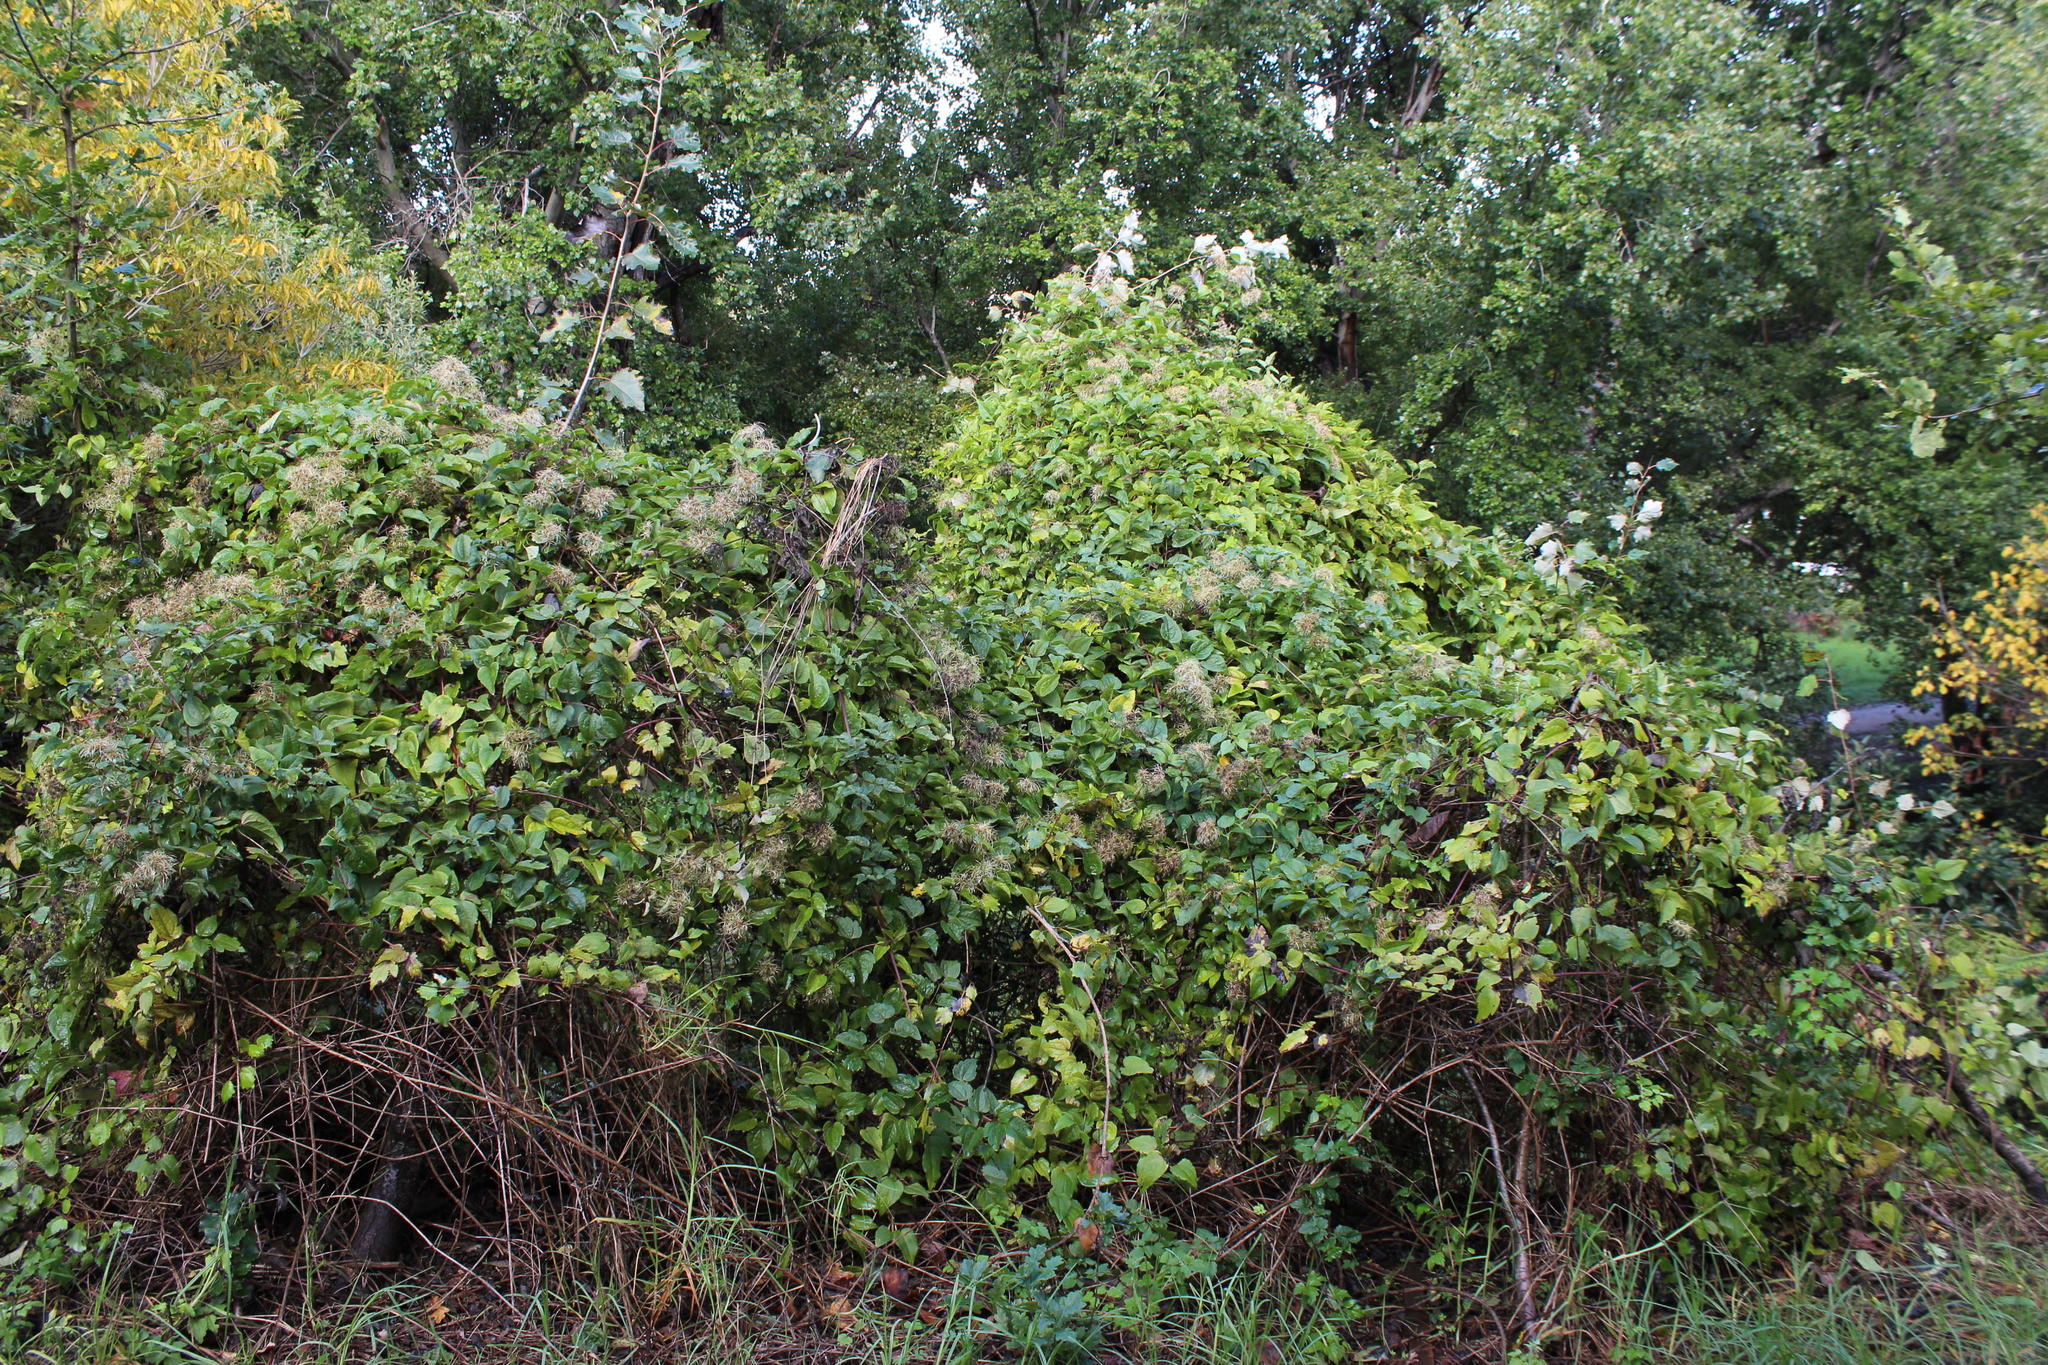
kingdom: Plantae
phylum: Tracheophyta
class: Magnoliopsida
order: Ranunculales
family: Ranunculaceae
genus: Clematis
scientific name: Clematis brachiata
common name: Traveler's-joy
